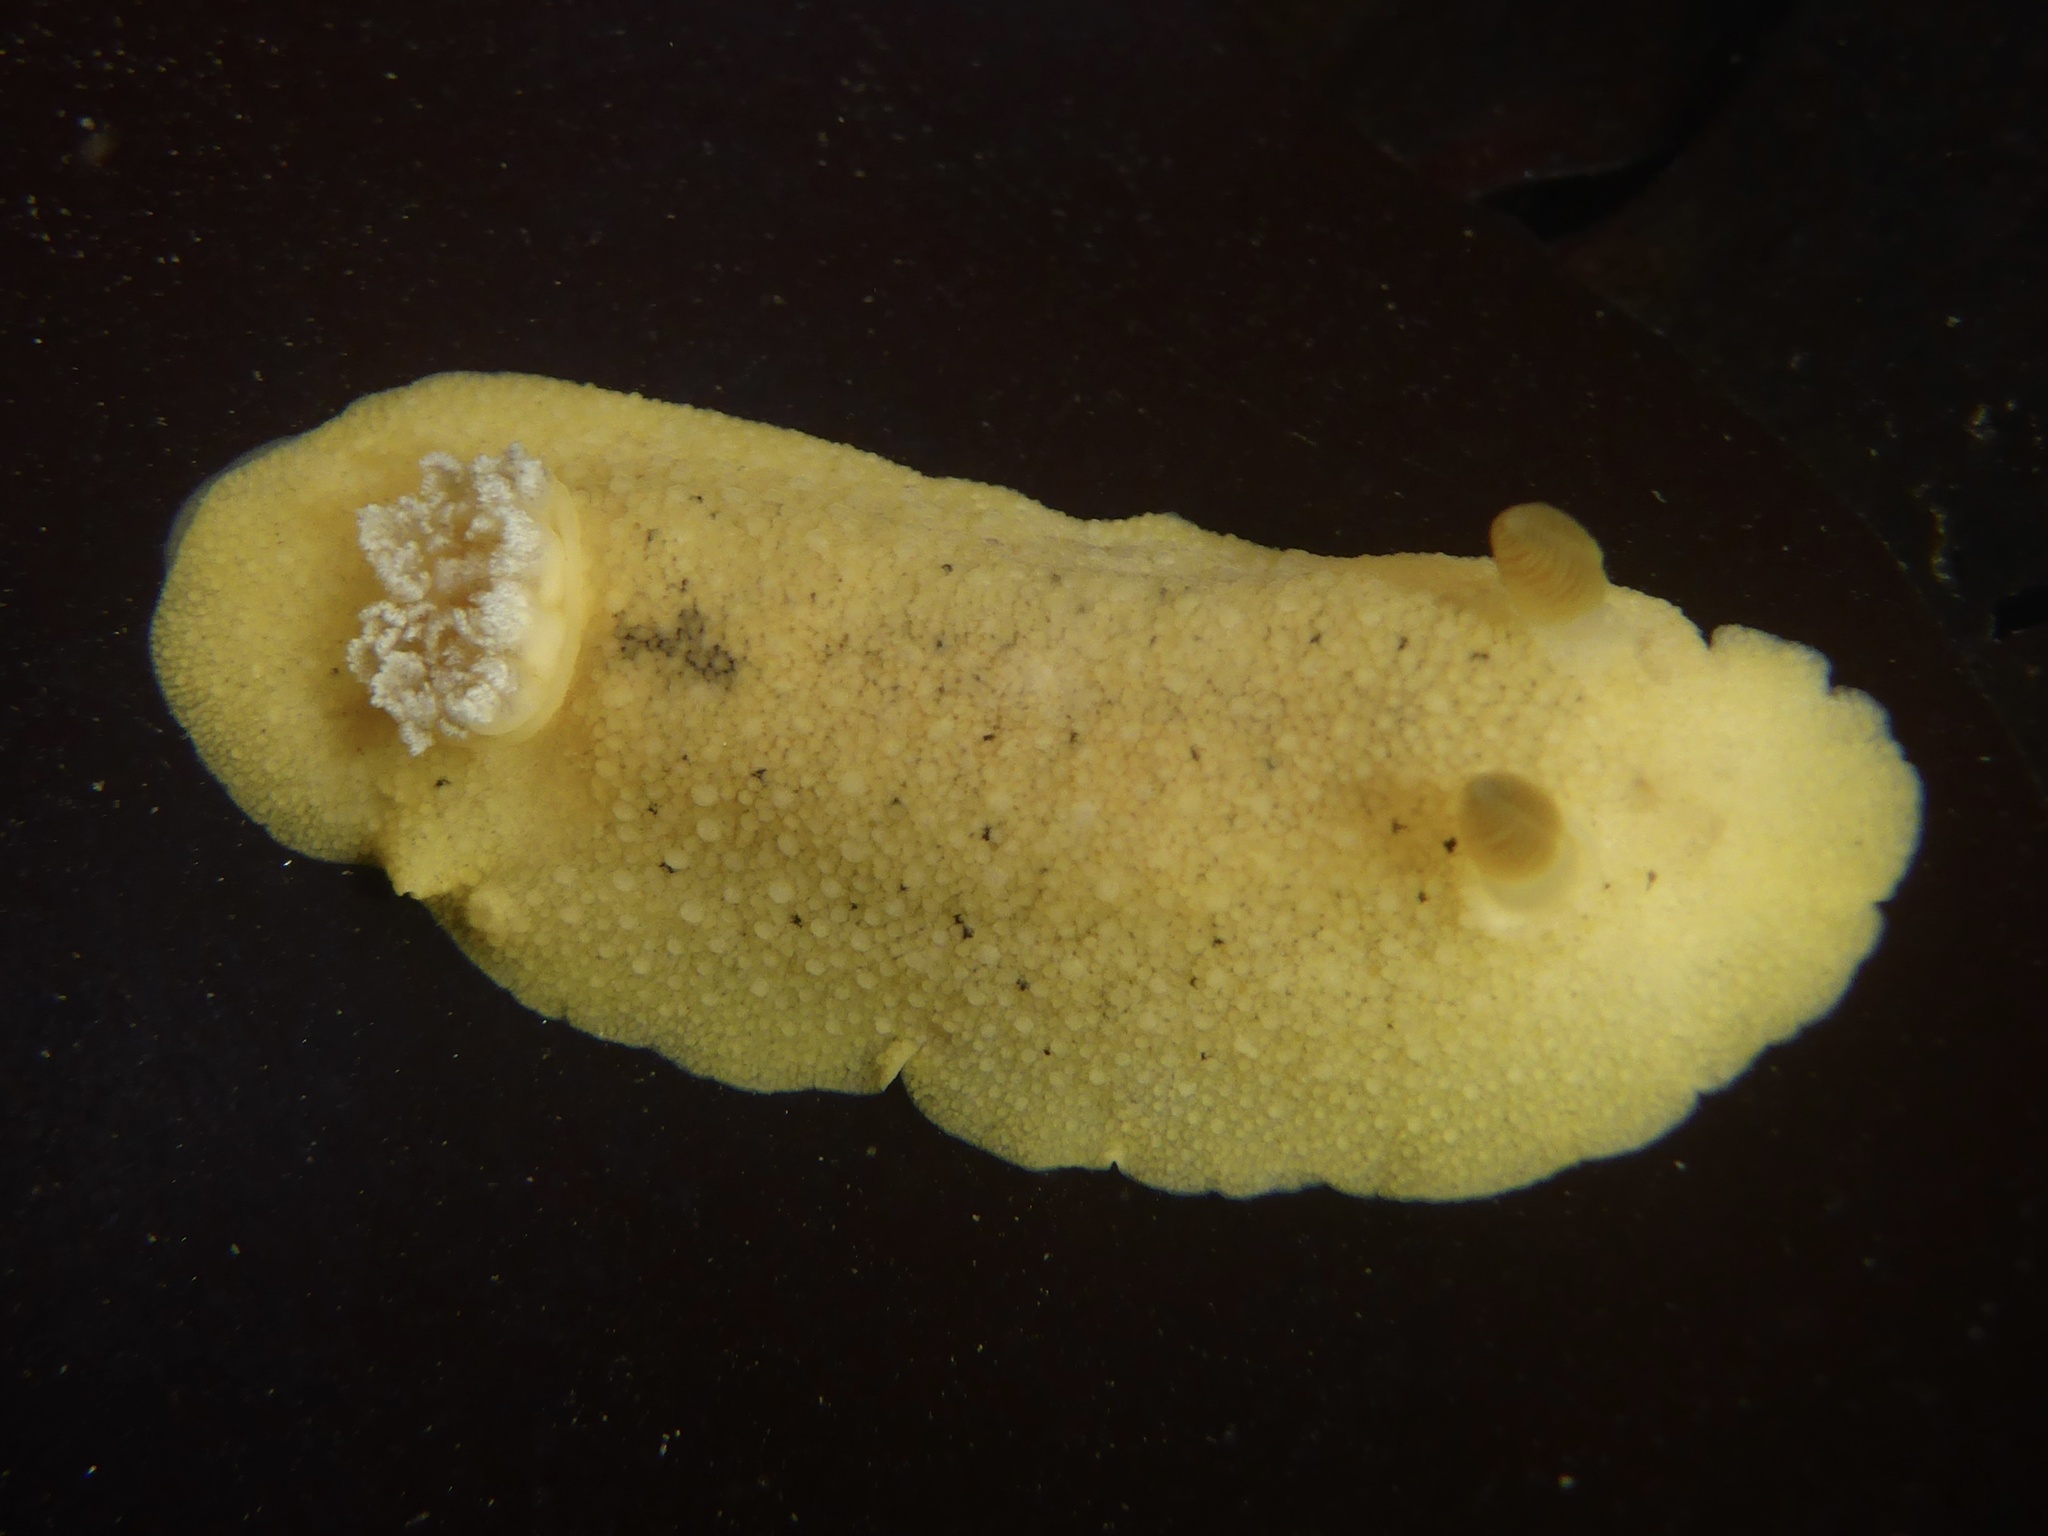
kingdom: Animalia
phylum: Mollusca
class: Gastropoda
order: Nudibranchia
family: Discodorididae
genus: Geitodoris
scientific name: Geitodoris heathi
